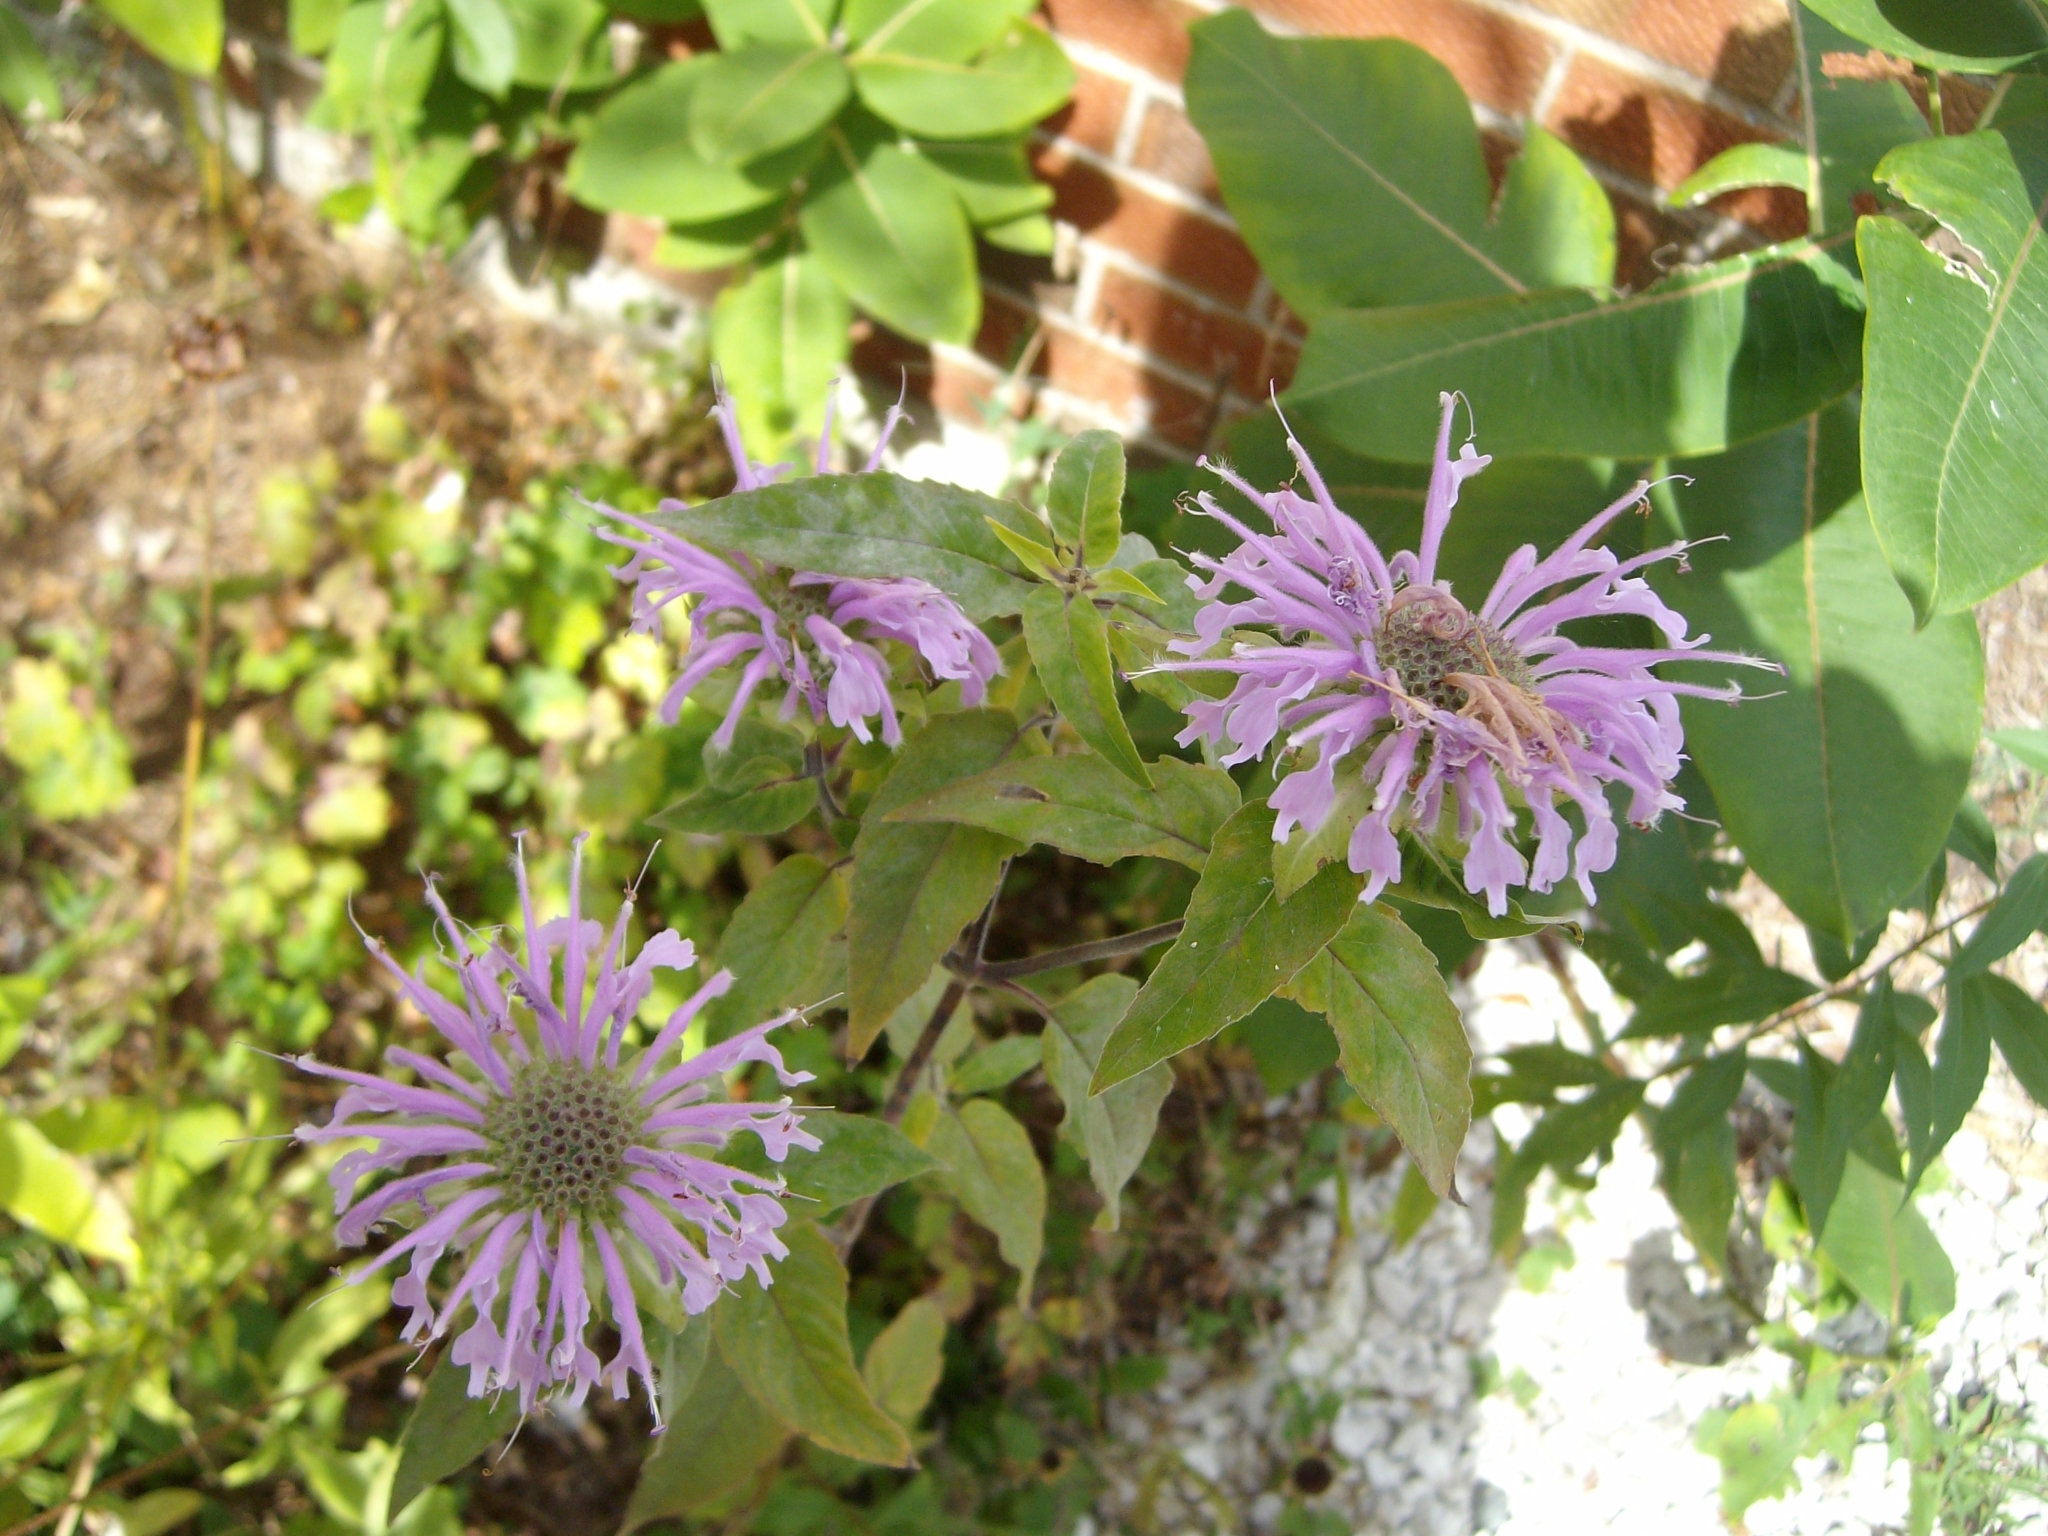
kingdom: Plantae
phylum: Tracheophyta
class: Magnoliopsida
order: Lamiales
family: Lamiaceae
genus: Monarda
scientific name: Monarda fistulosa
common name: Purple beebalm
